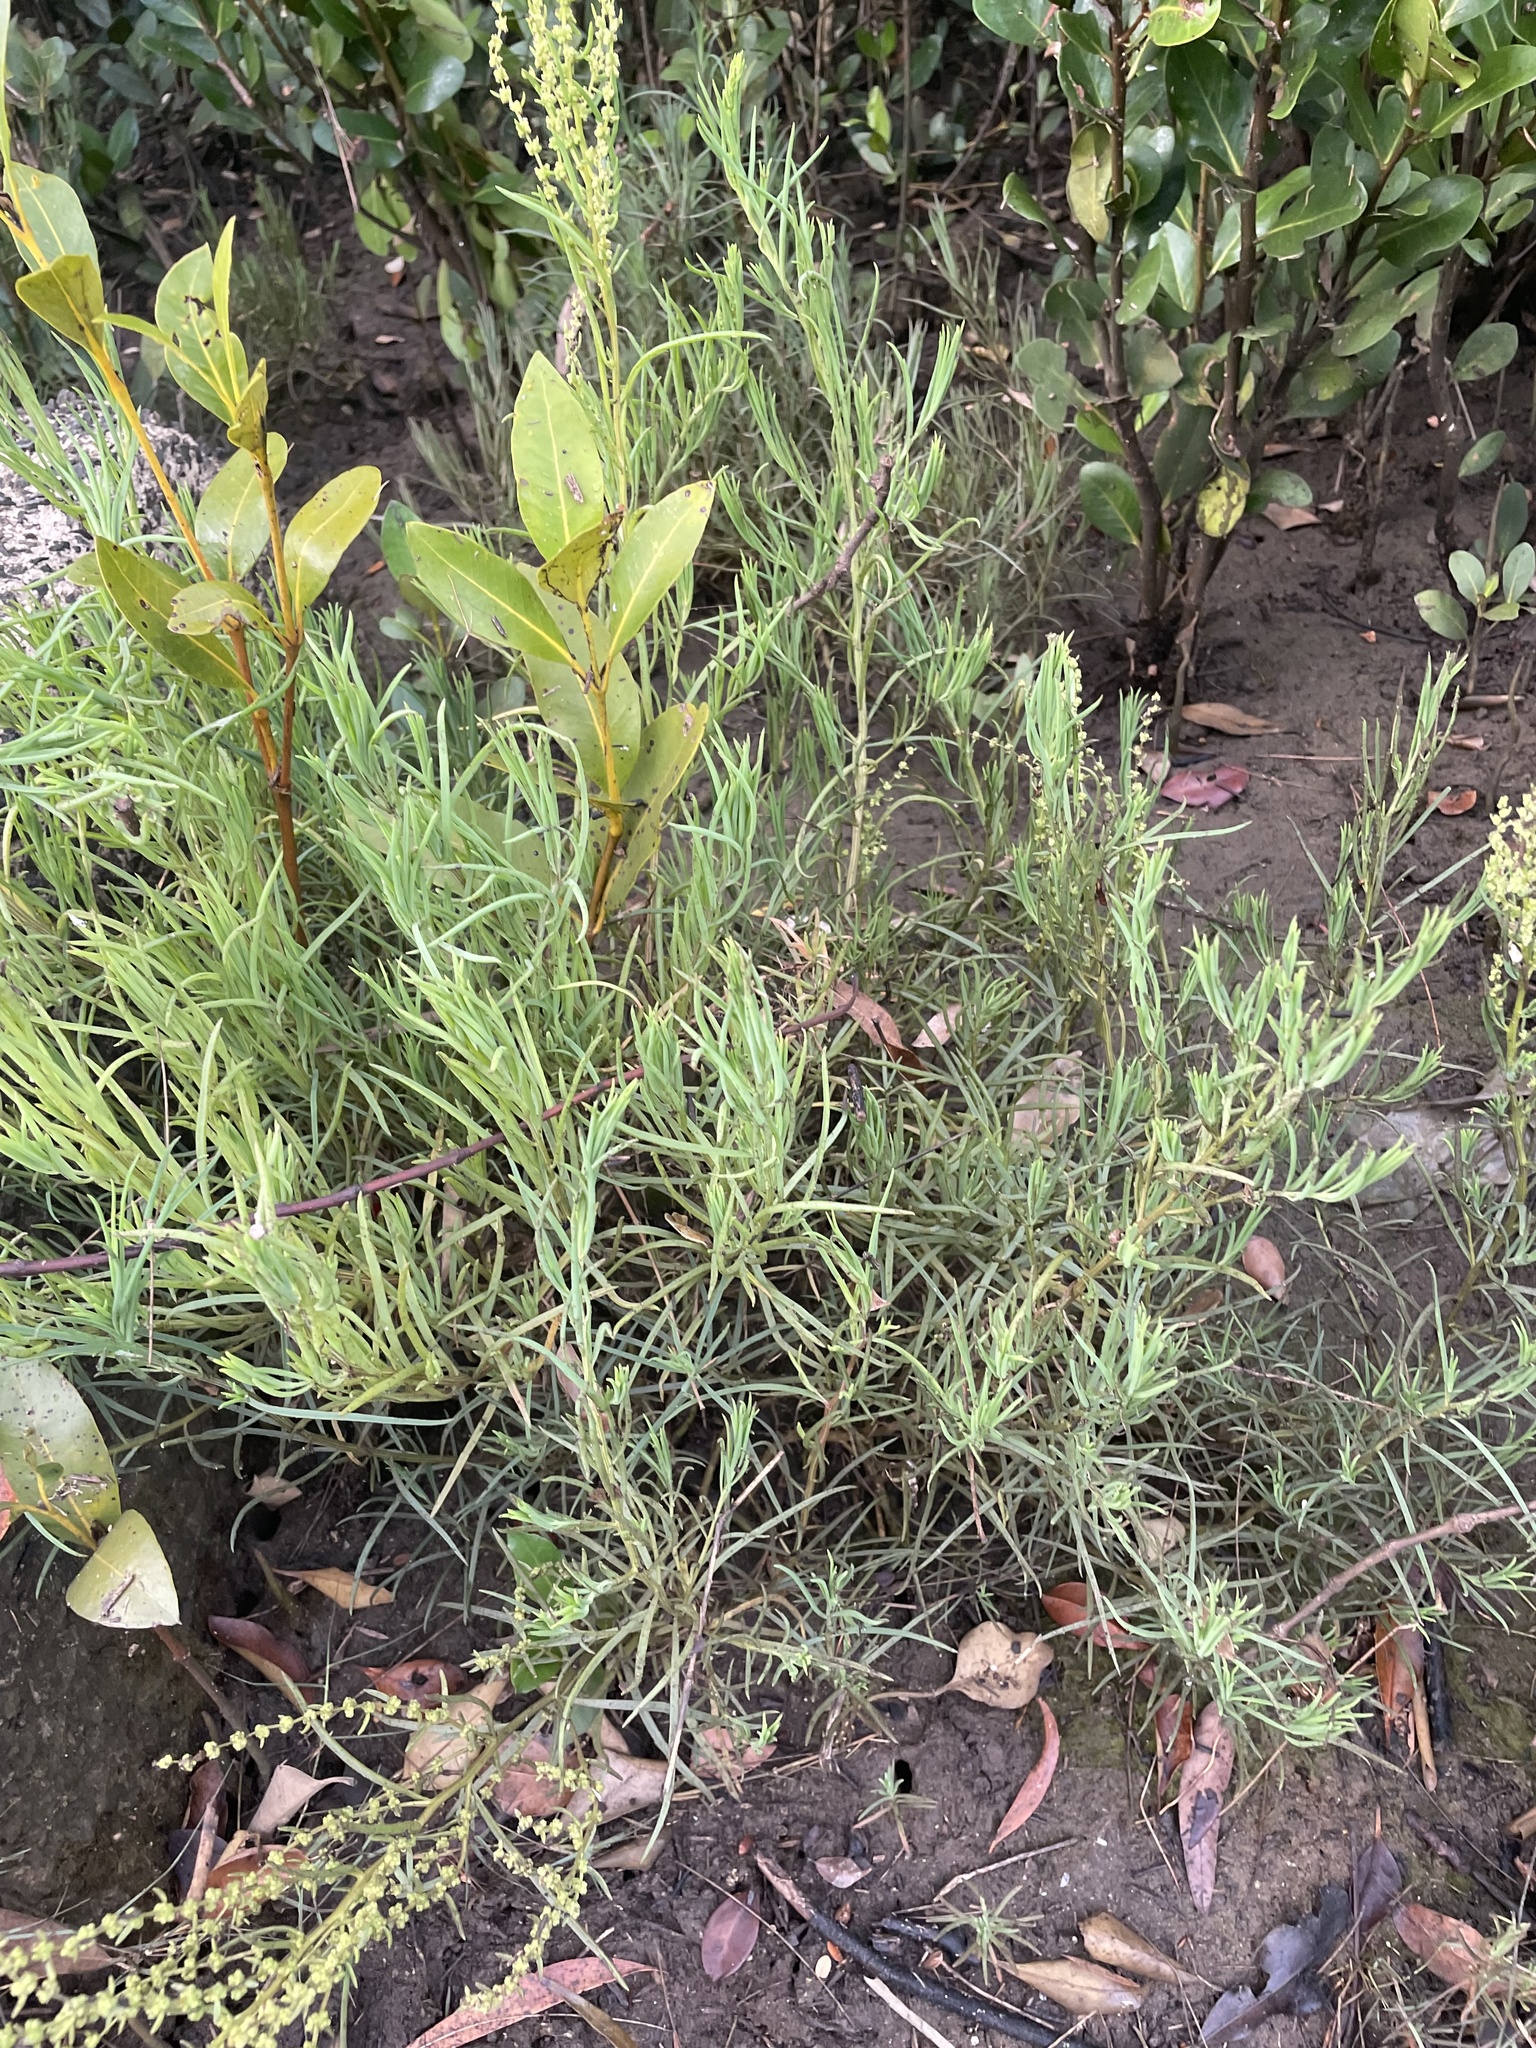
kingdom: Plantae
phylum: Tracheophyta
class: Magnoliopsida
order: Caryophyllales
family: Amaranthaceae
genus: Suaeda
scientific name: Suaeda australis
